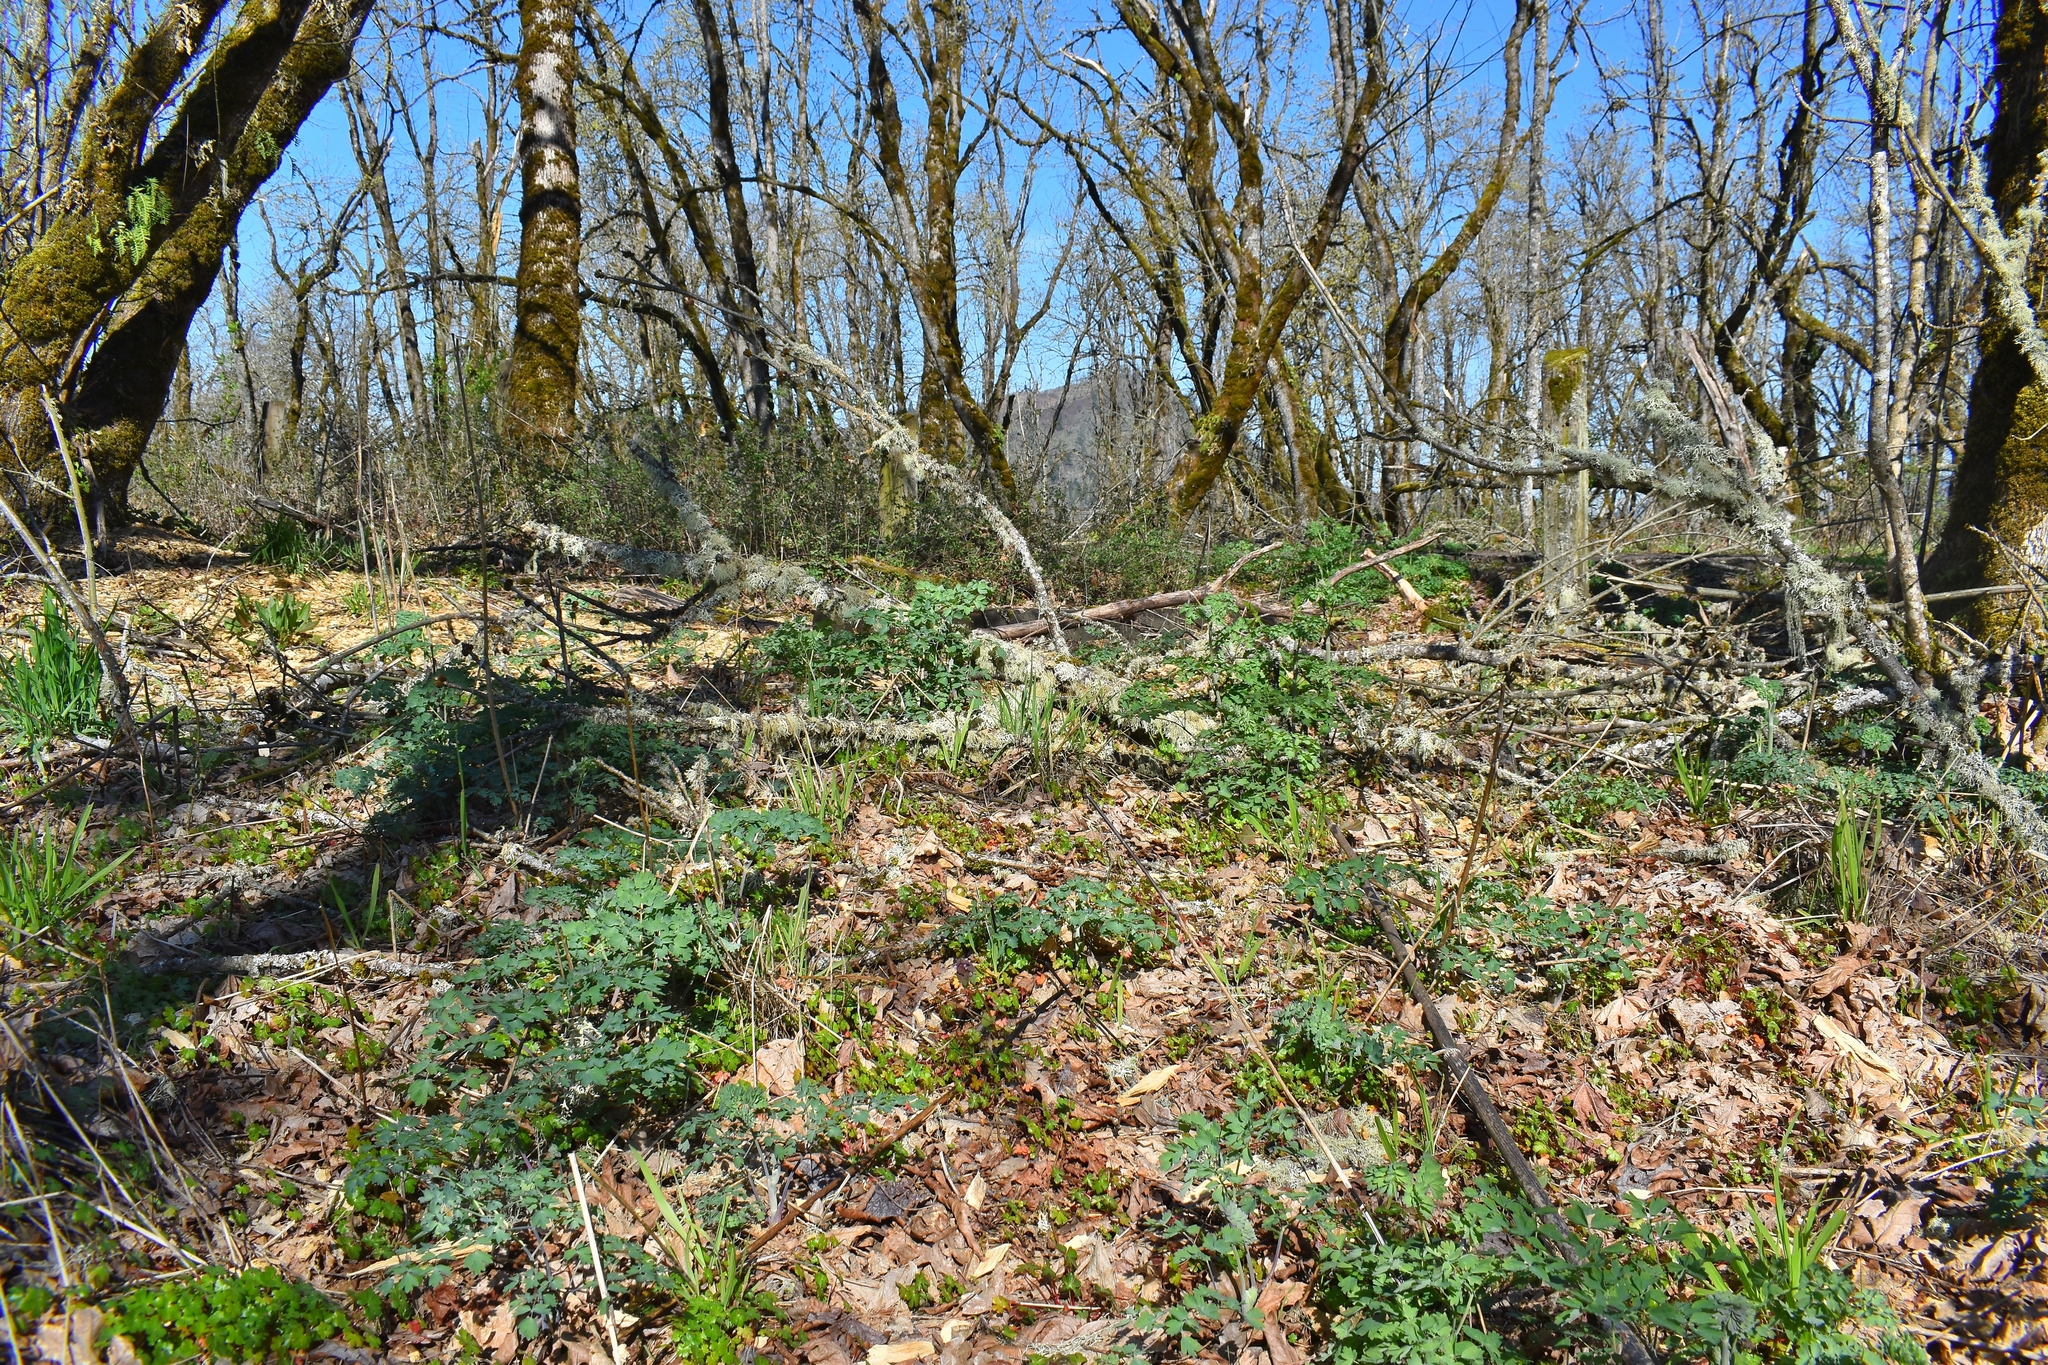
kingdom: Plantae
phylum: Tracheophyta
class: Magnoliopsida
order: Ranunculales
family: Ranunculaceae
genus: Thalictrum
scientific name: Thalictrum fendleri
